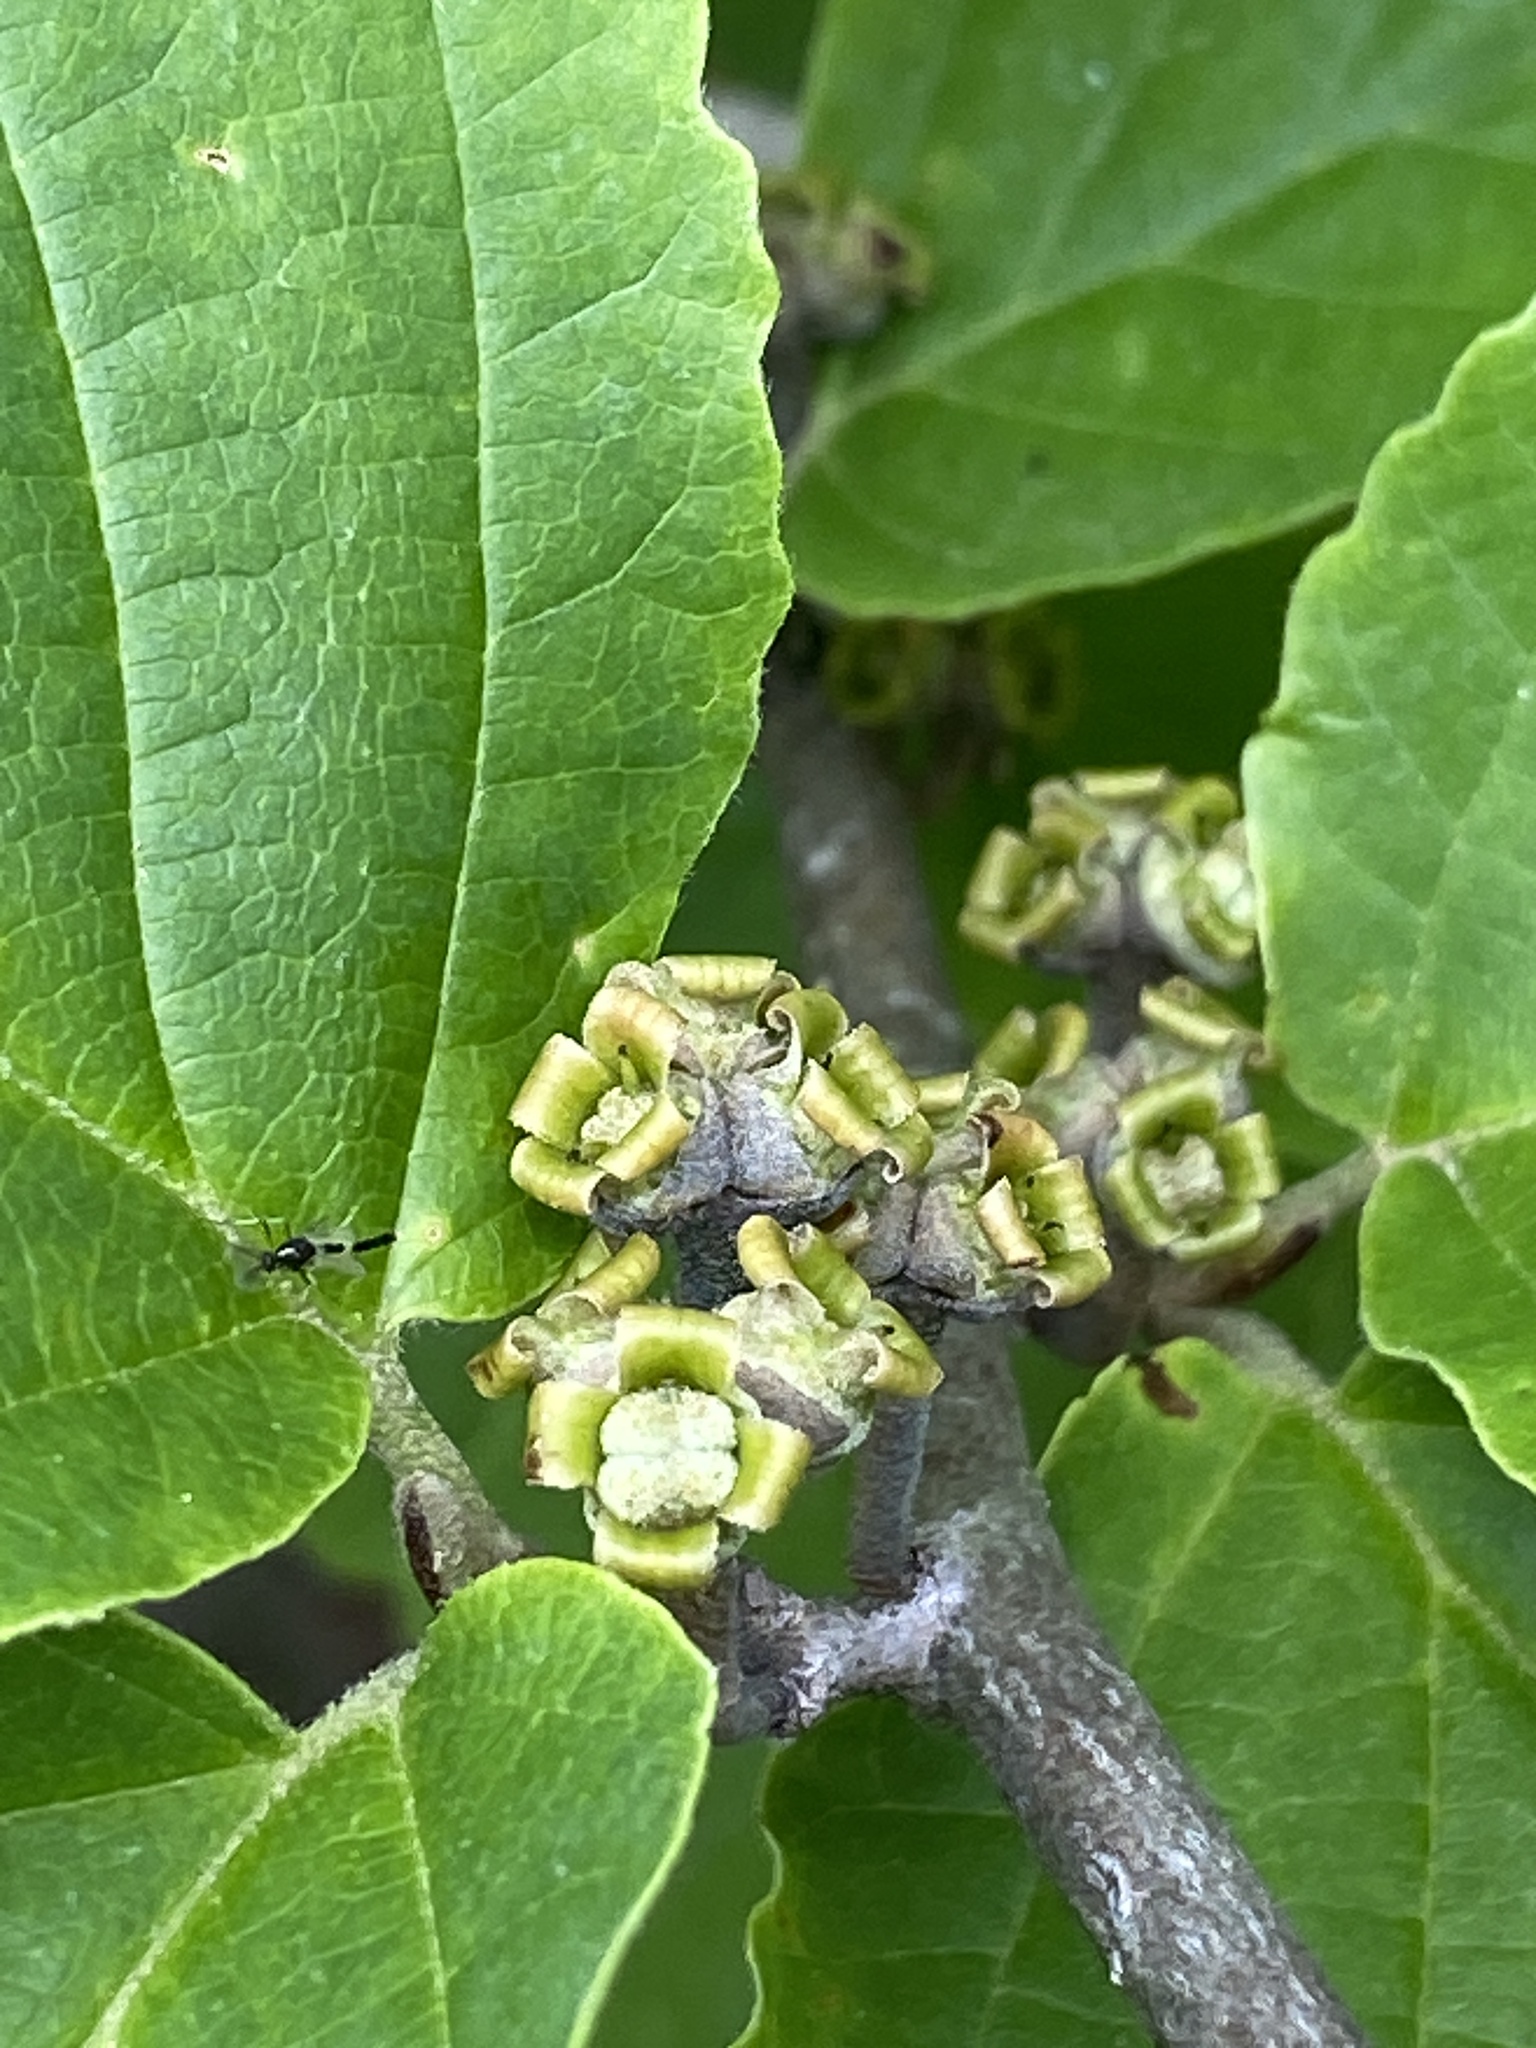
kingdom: Plantae
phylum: Tracheophyta
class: Magnoliopsida
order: Saxifragales
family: Hamamelidaceae
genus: Hamamelis
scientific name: Hamamelis virginiana
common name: Witch-hazel
